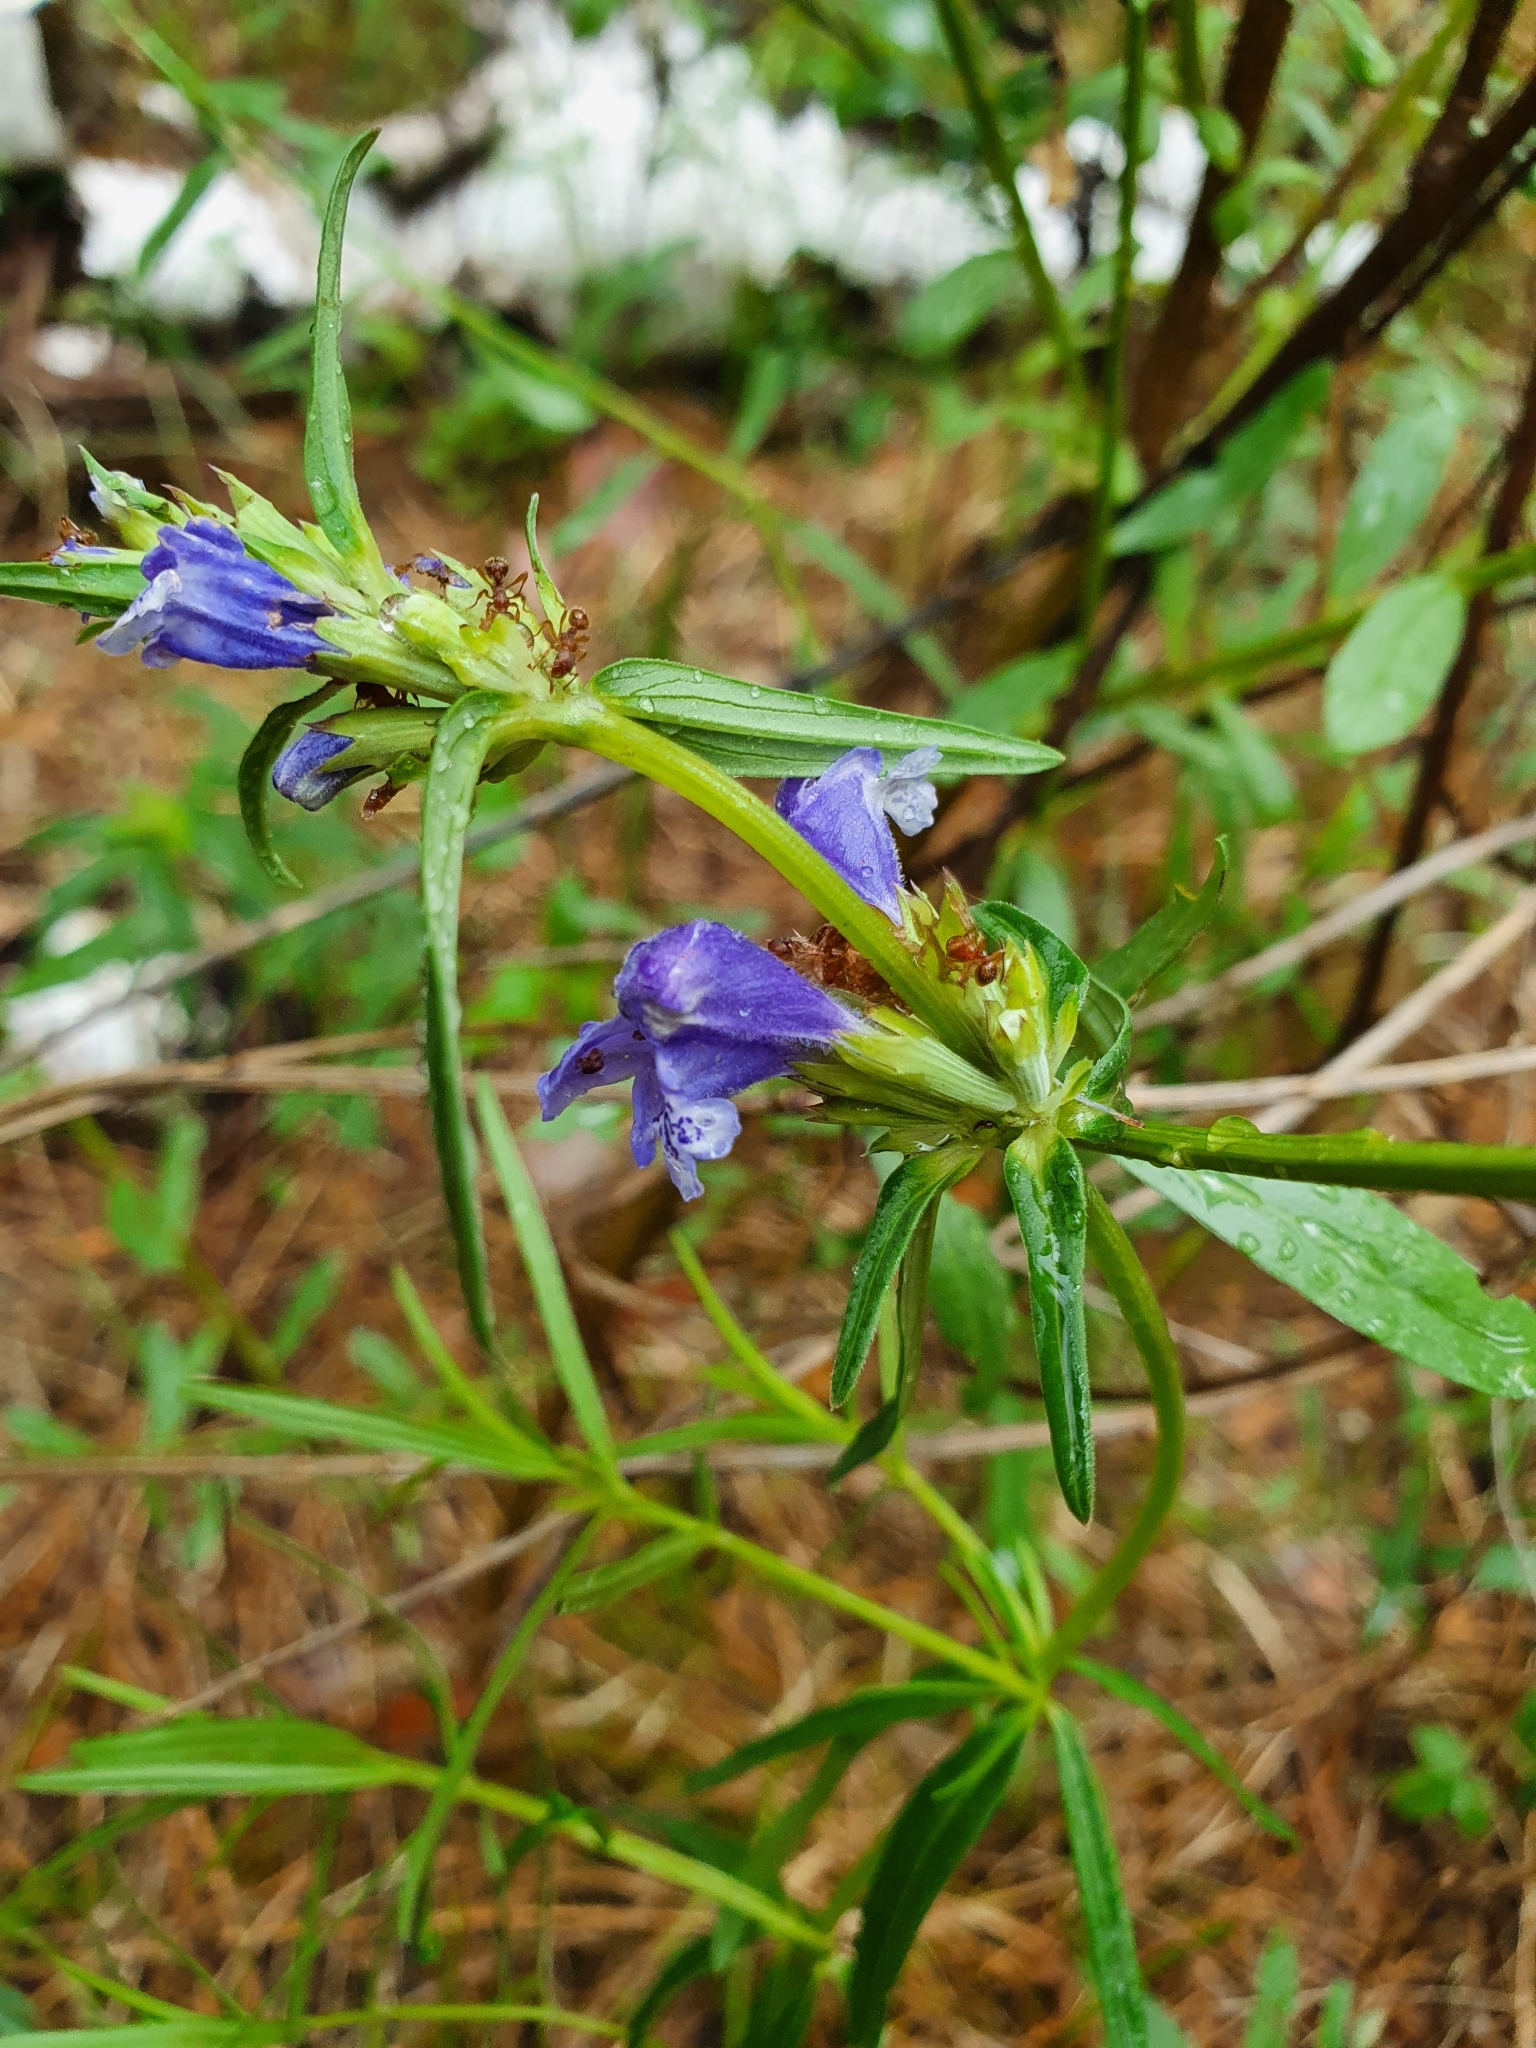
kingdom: Plantae
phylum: Tracheophyta
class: Magnoliopsida
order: Lamiales
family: Lamiaceae
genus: Dracocephalum
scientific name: Dracocephalum ruyschiana
